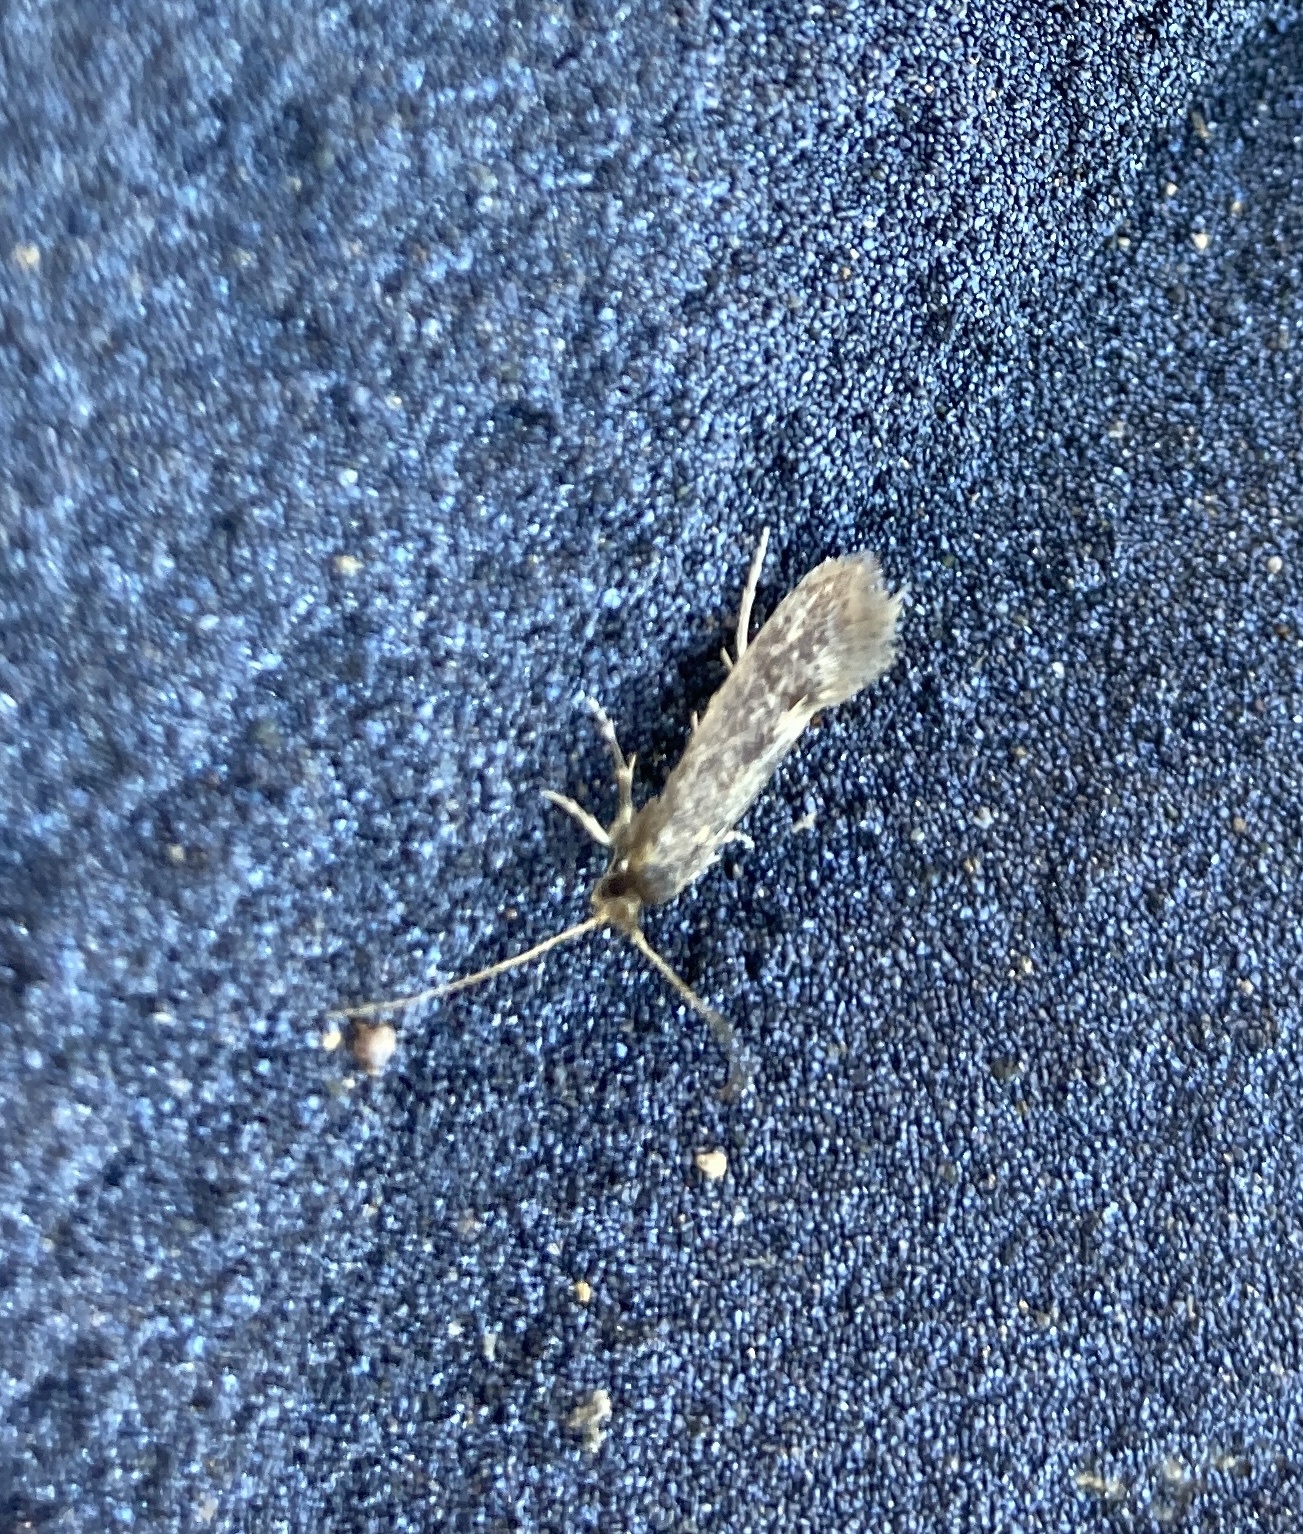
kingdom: Animalia
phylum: Arthropoda
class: Insecta
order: Lepidoptera
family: Tineidae
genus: Opogona
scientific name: Opogona omoscopa
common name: Moth
